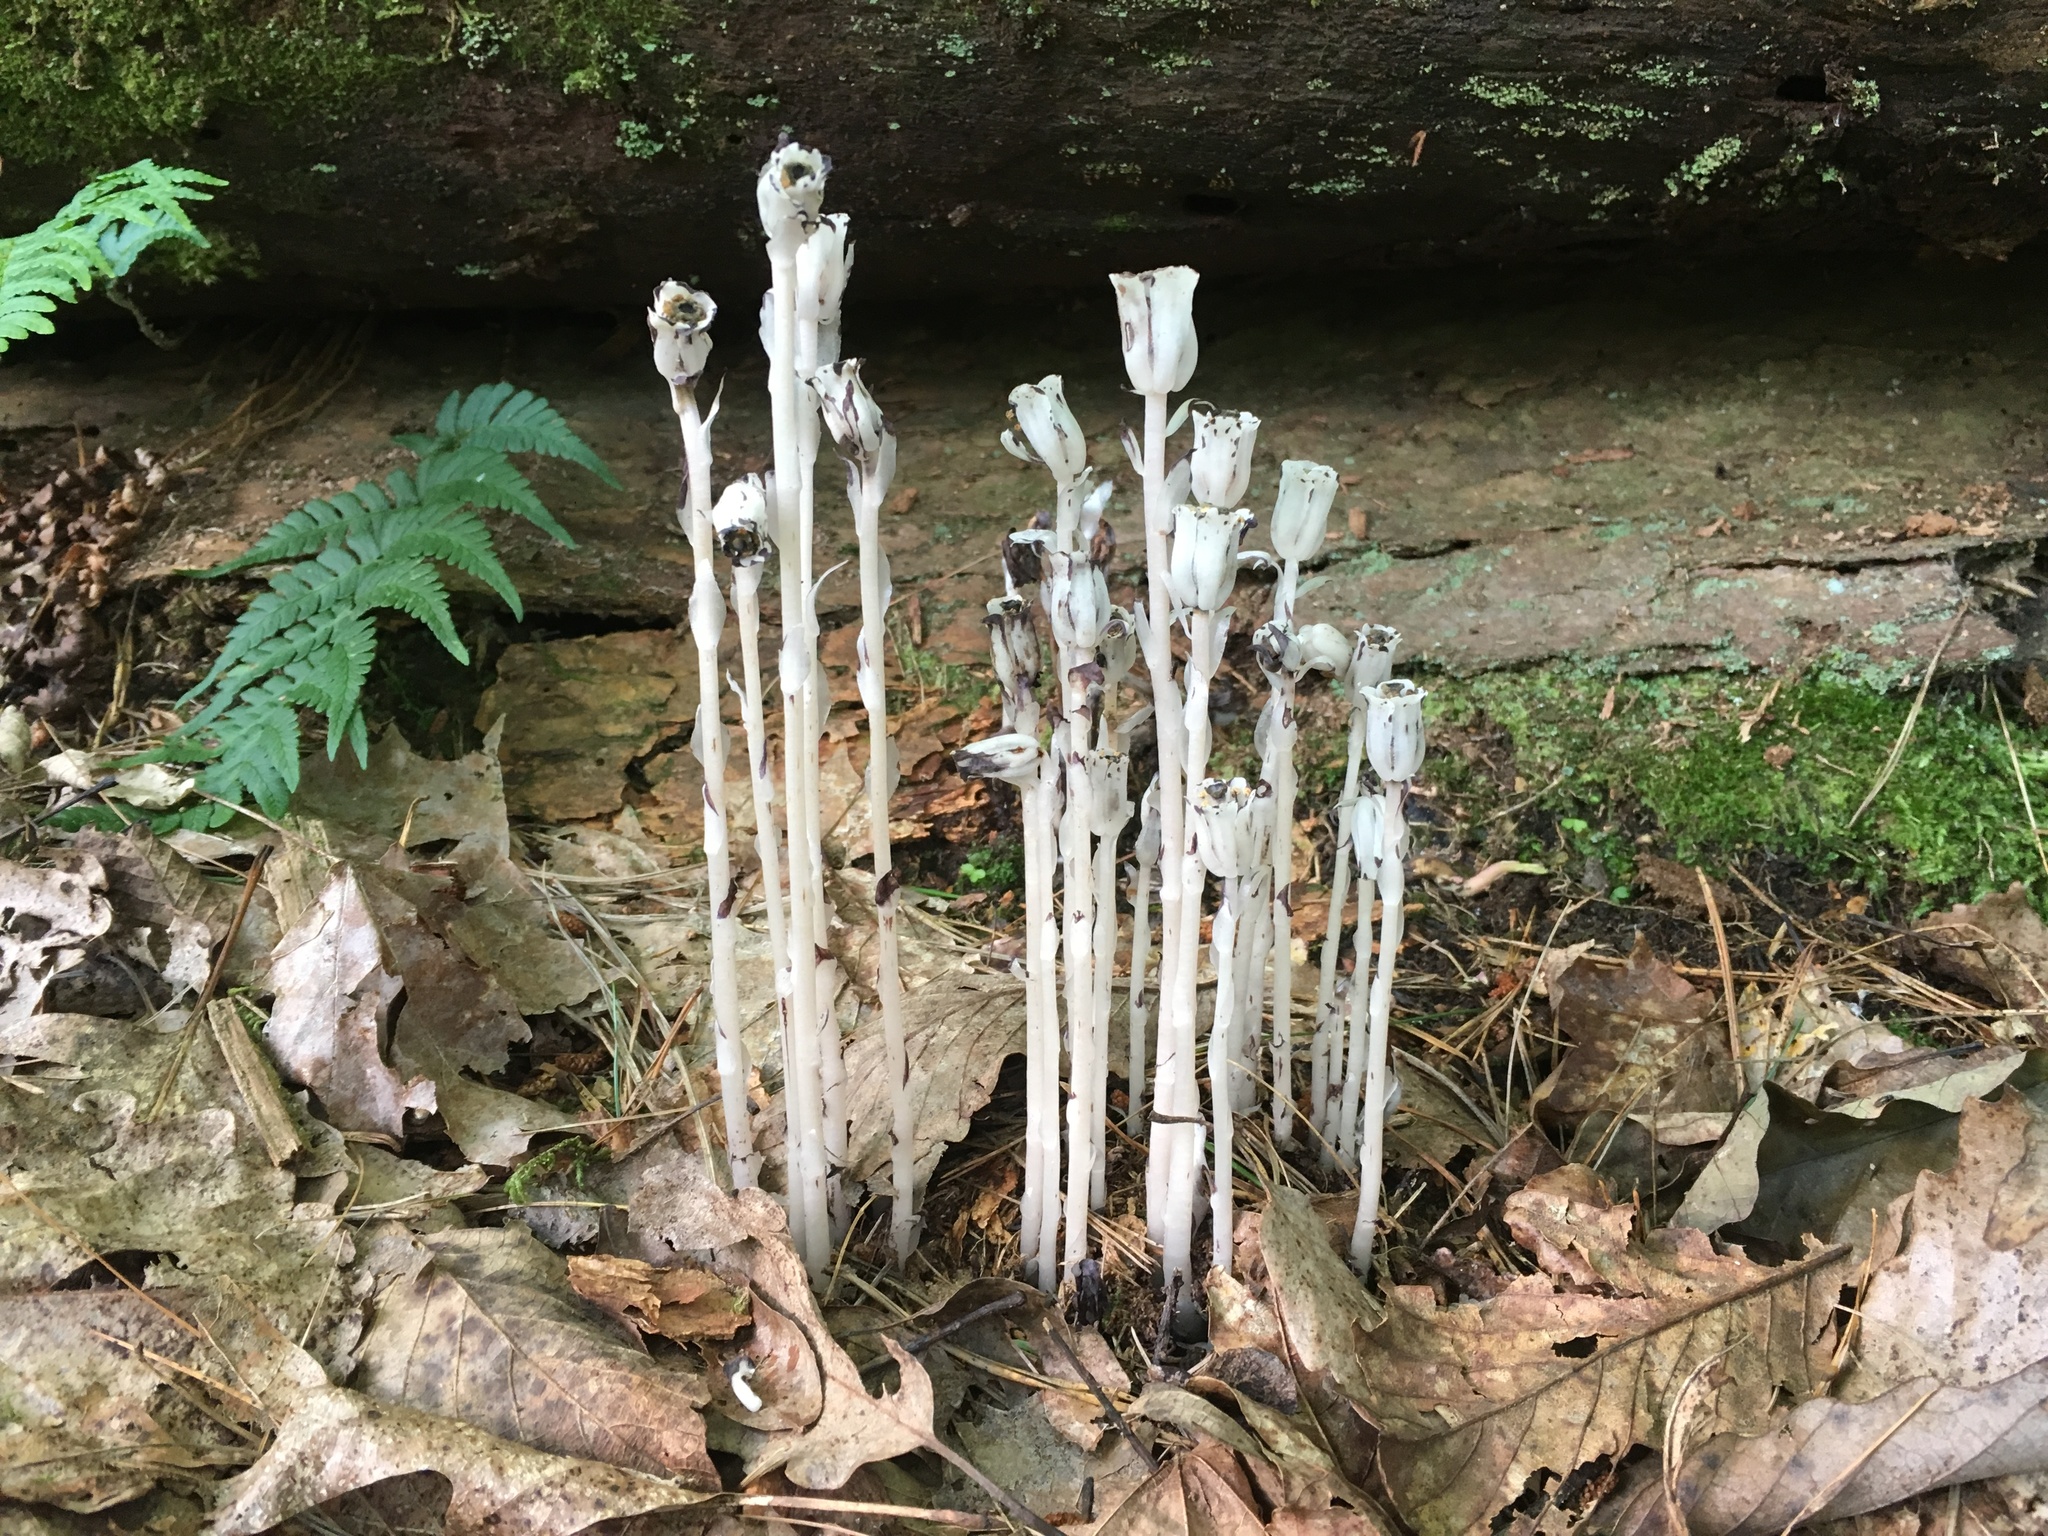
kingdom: Plantae
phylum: Tracheophyta
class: Magnoliopsida
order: Ericales
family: Ericaceae
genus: Monotropa
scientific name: Monotropa uniflora
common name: Convulsion root
